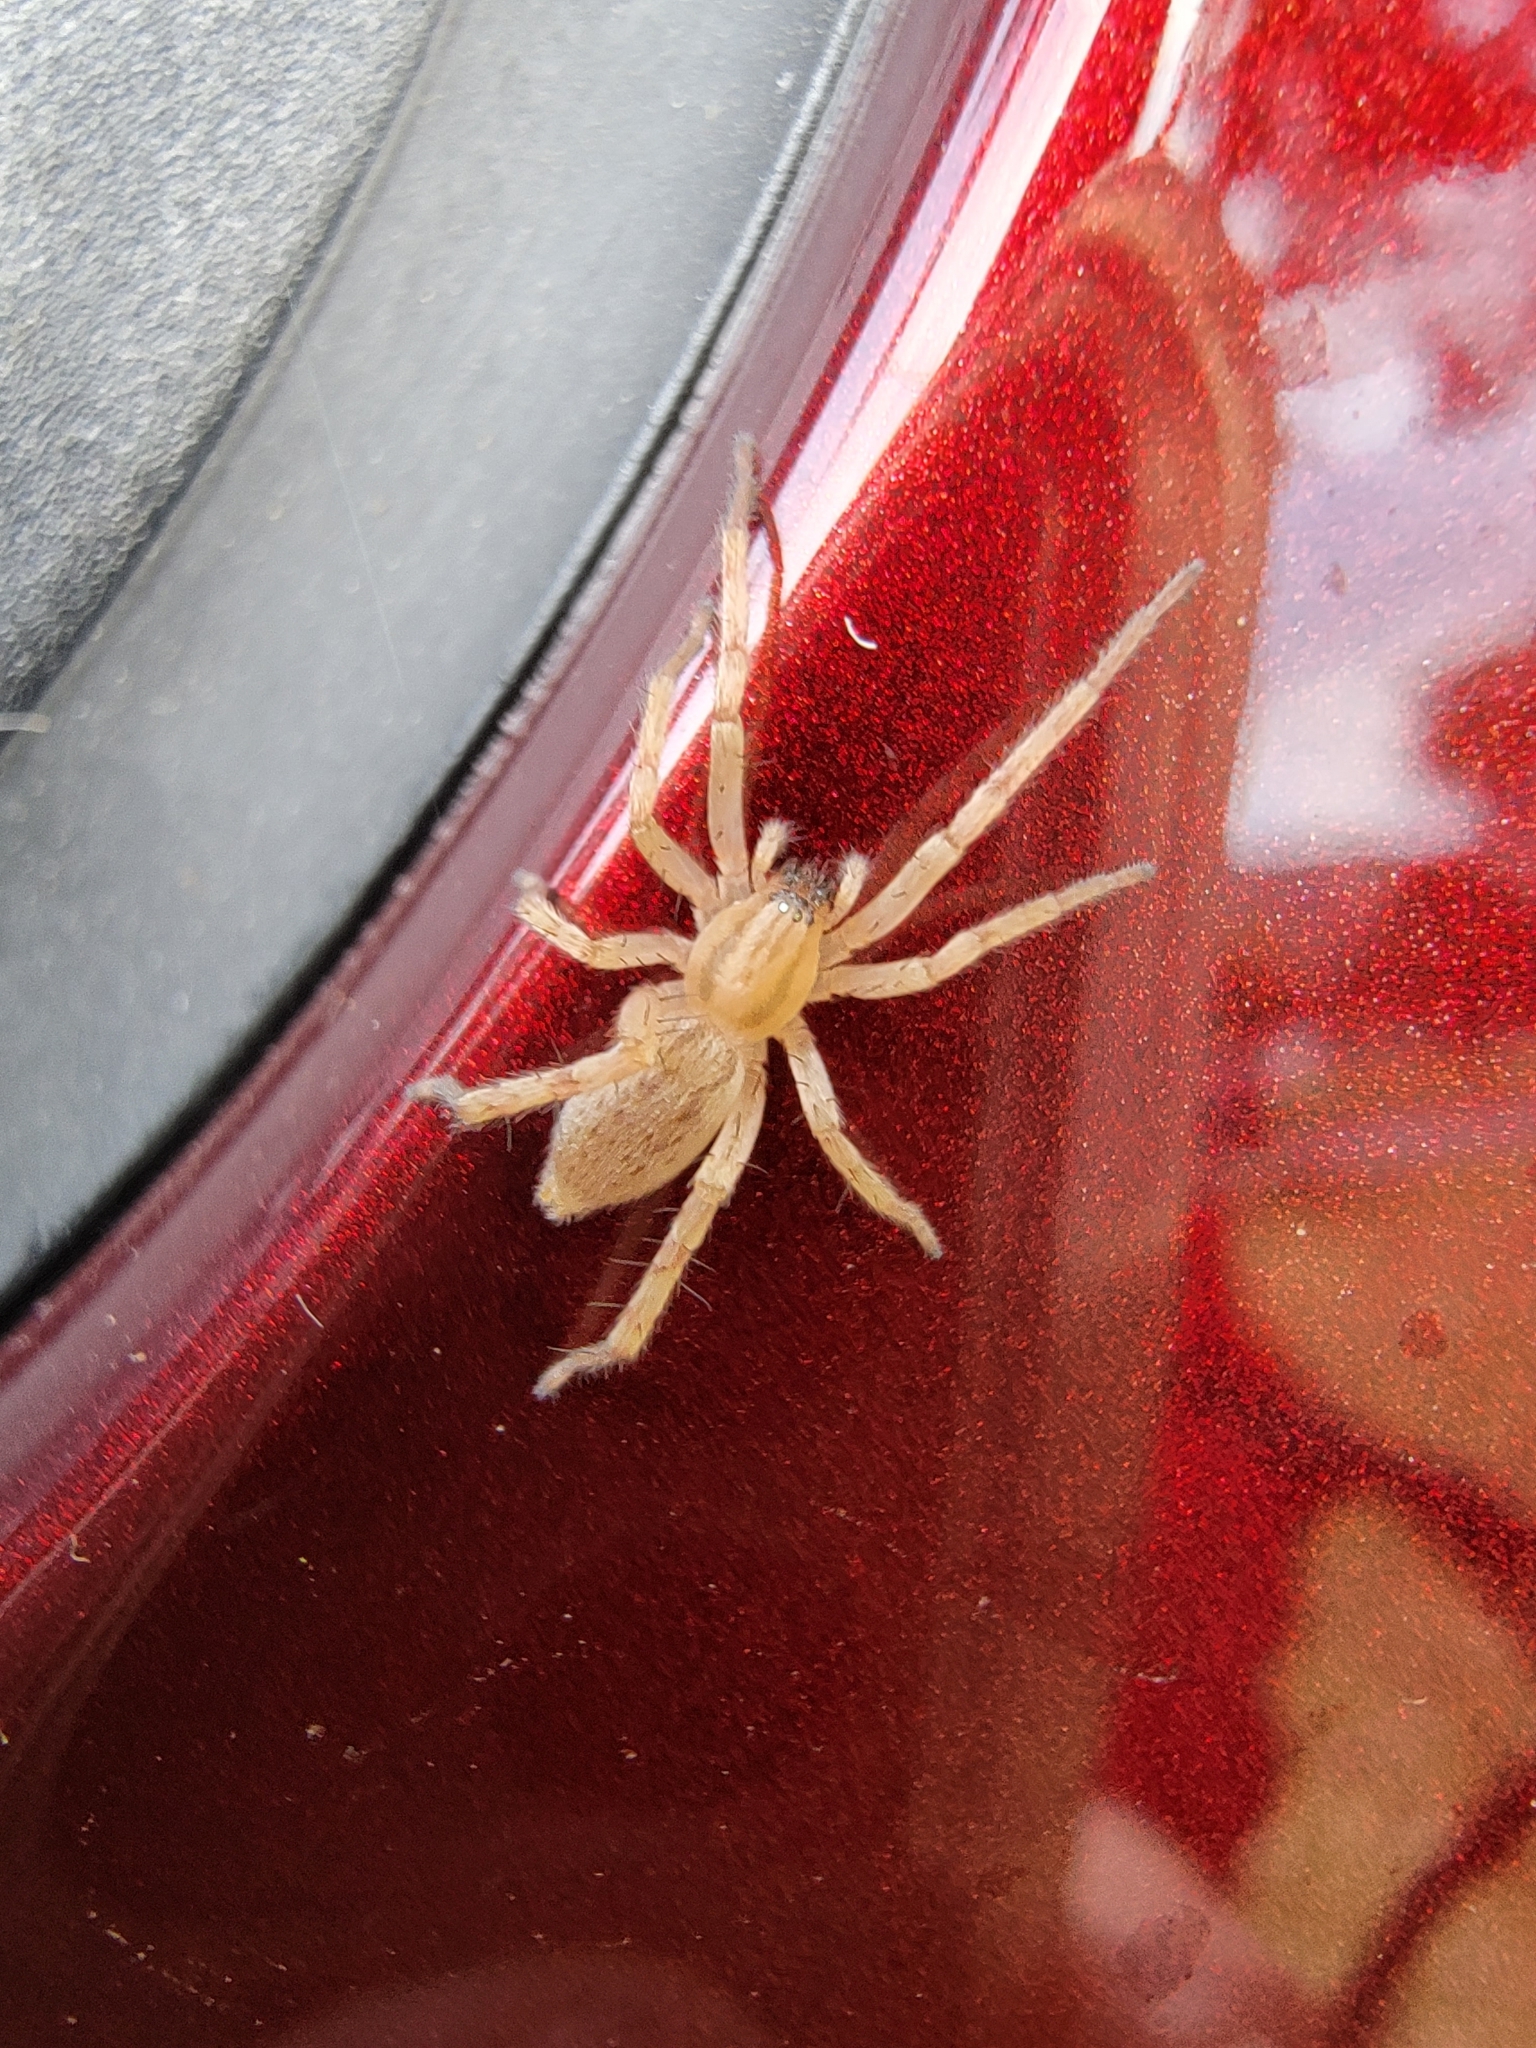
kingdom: Animalia
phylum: Arthropoda
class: Arachnida
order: Araneae
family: Anyphaenidae
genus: Hibana
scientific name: Hibana gracilis
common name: Garden ghost spider
